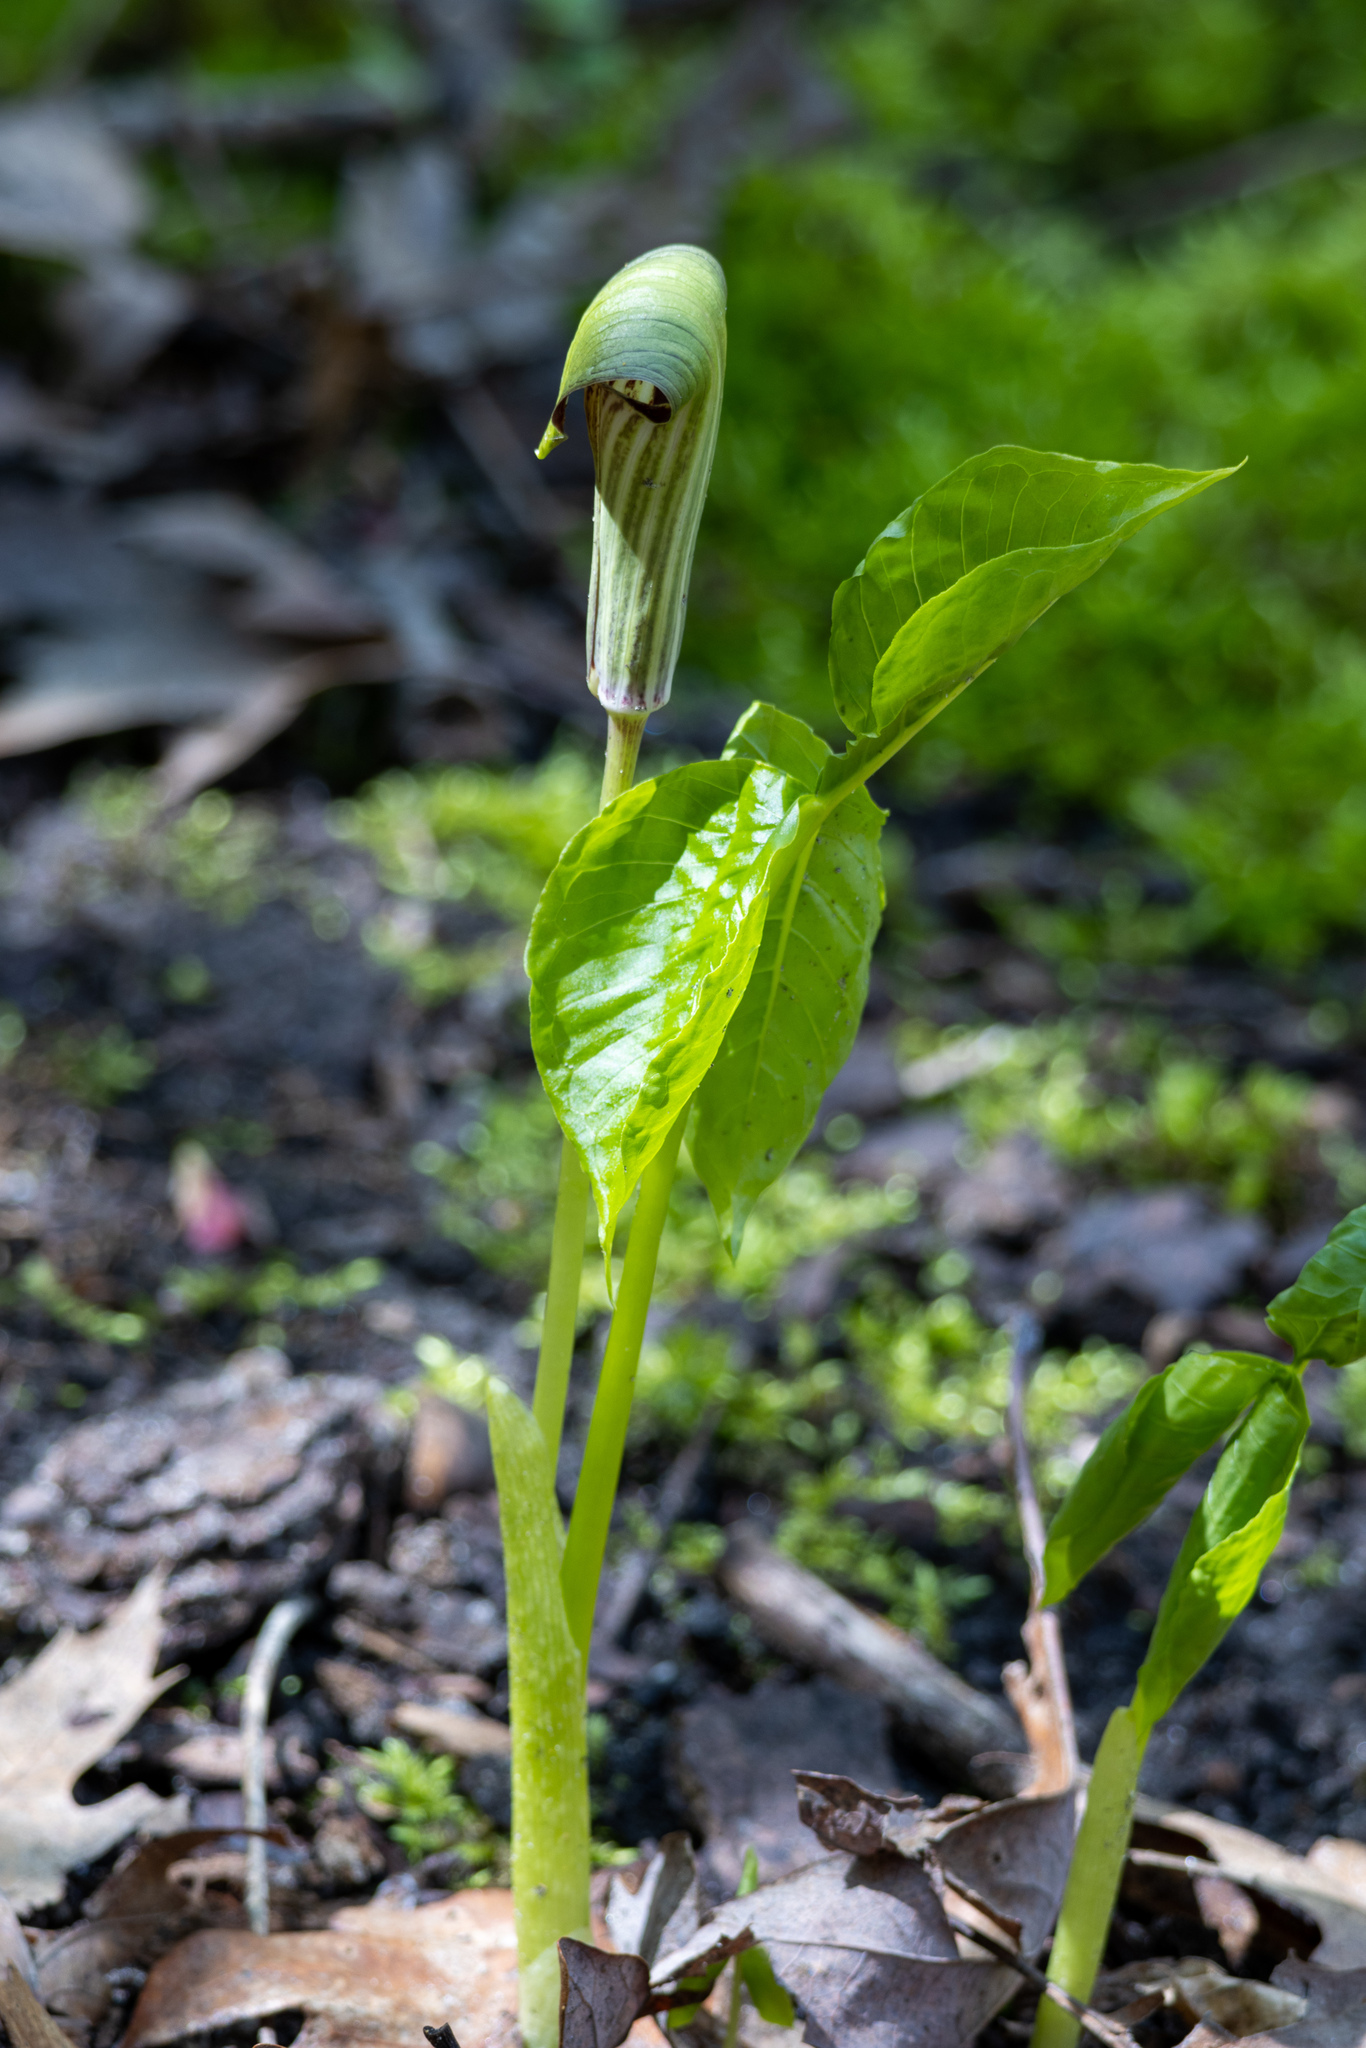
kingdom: Plantae
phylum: Tracheophyta
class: Liliopsida
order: Alismatales
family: Araceae
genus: Arisaema
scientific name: Arisaema triphyllum
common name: Jack-in-the-pulpit
